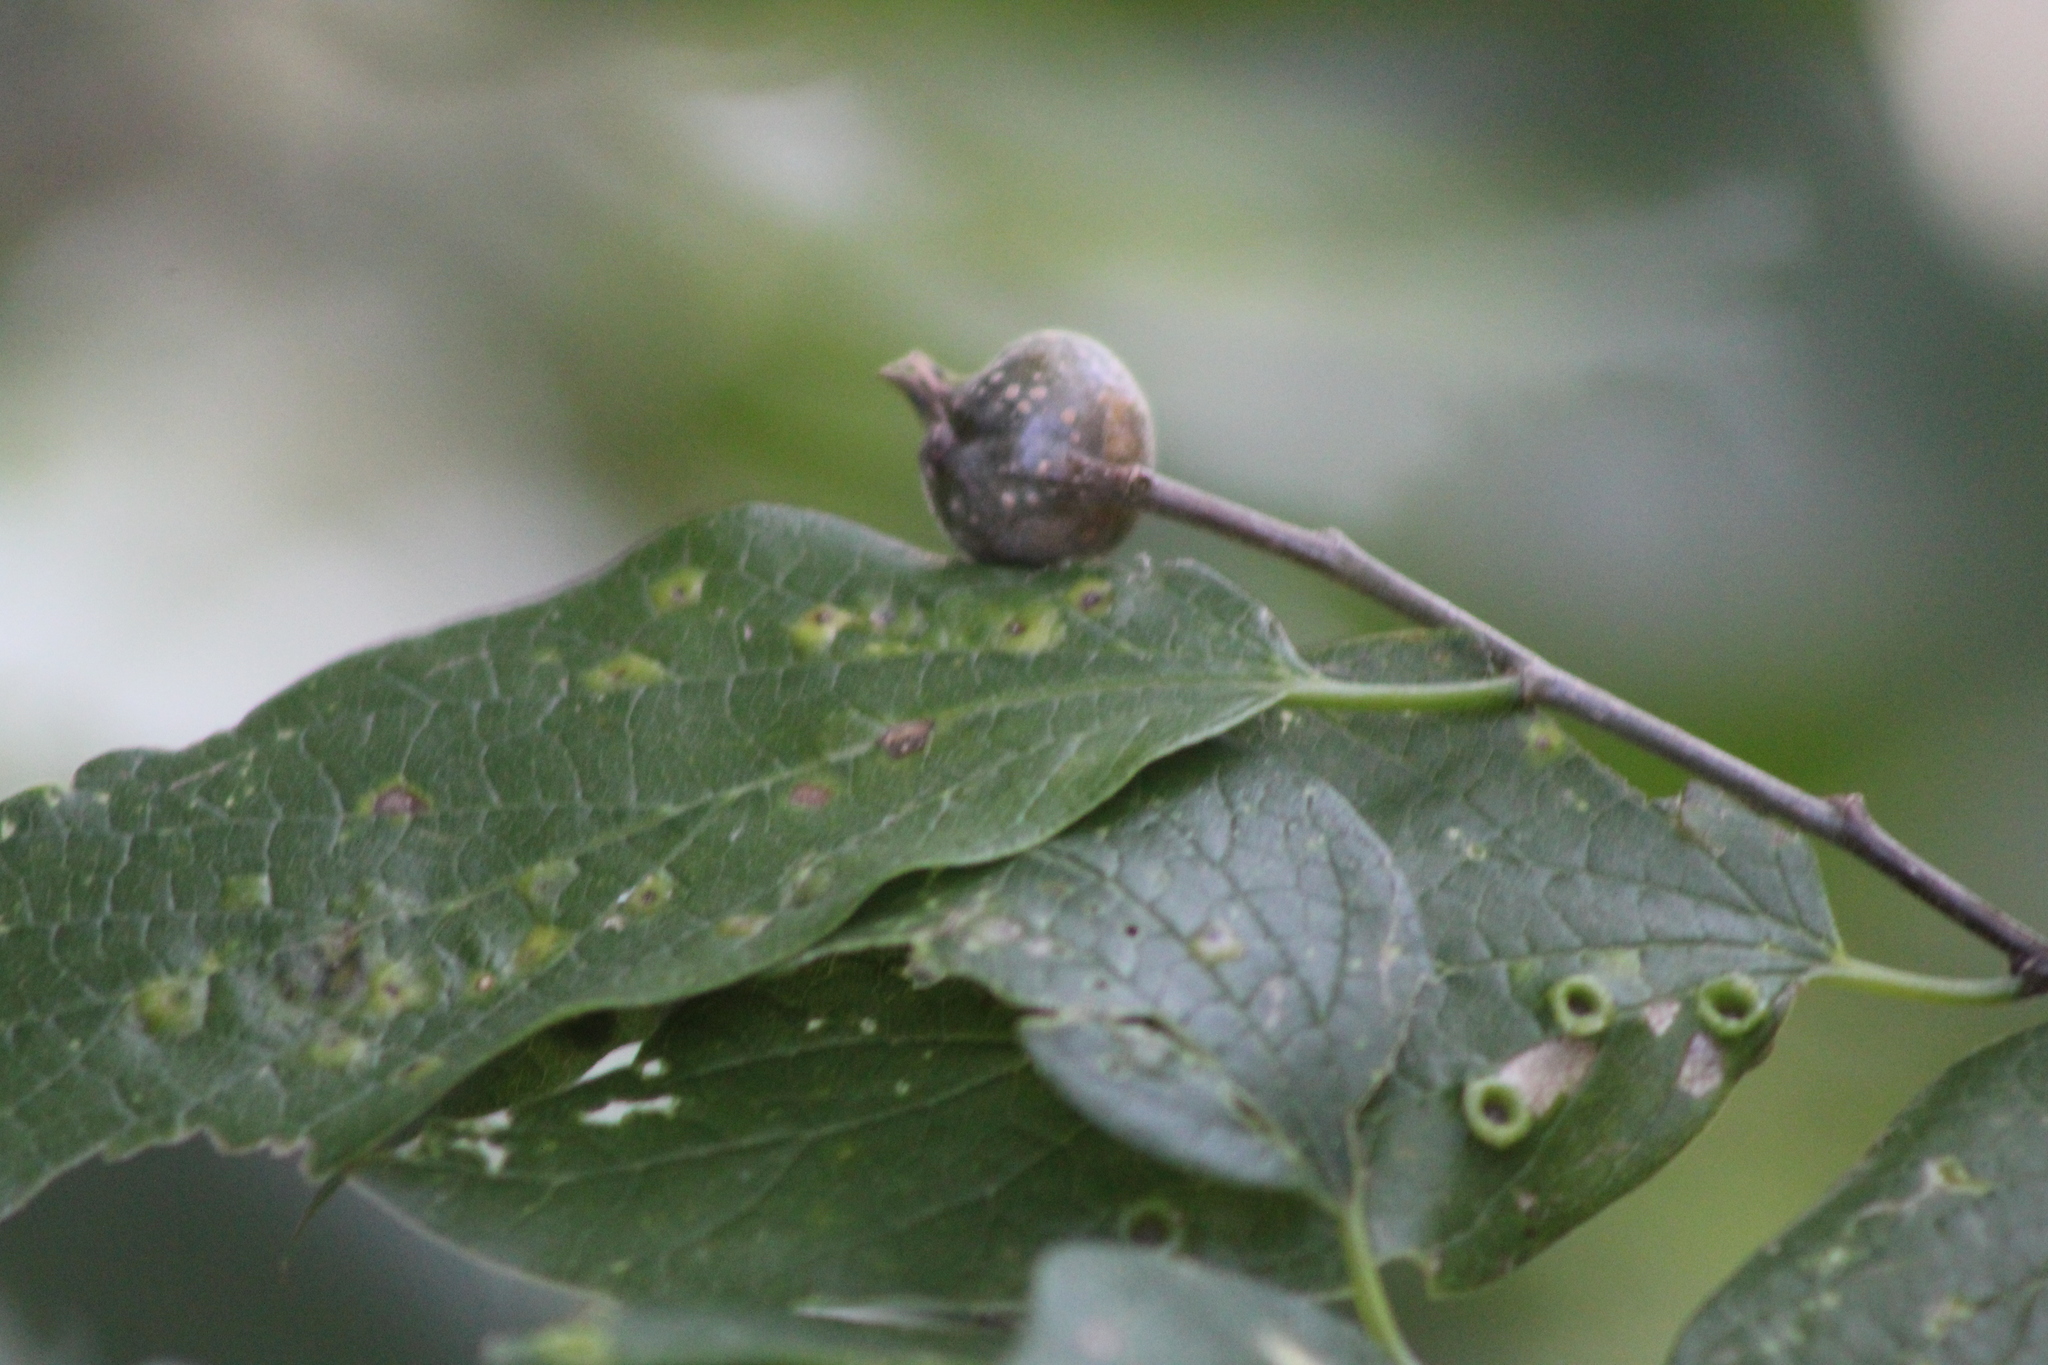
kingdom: Animalia
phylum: Arthropoda
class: Insecta
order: Hemiptera
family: Aphalaridae
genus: Pachypsylla
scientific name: Pachypsylla venusta
